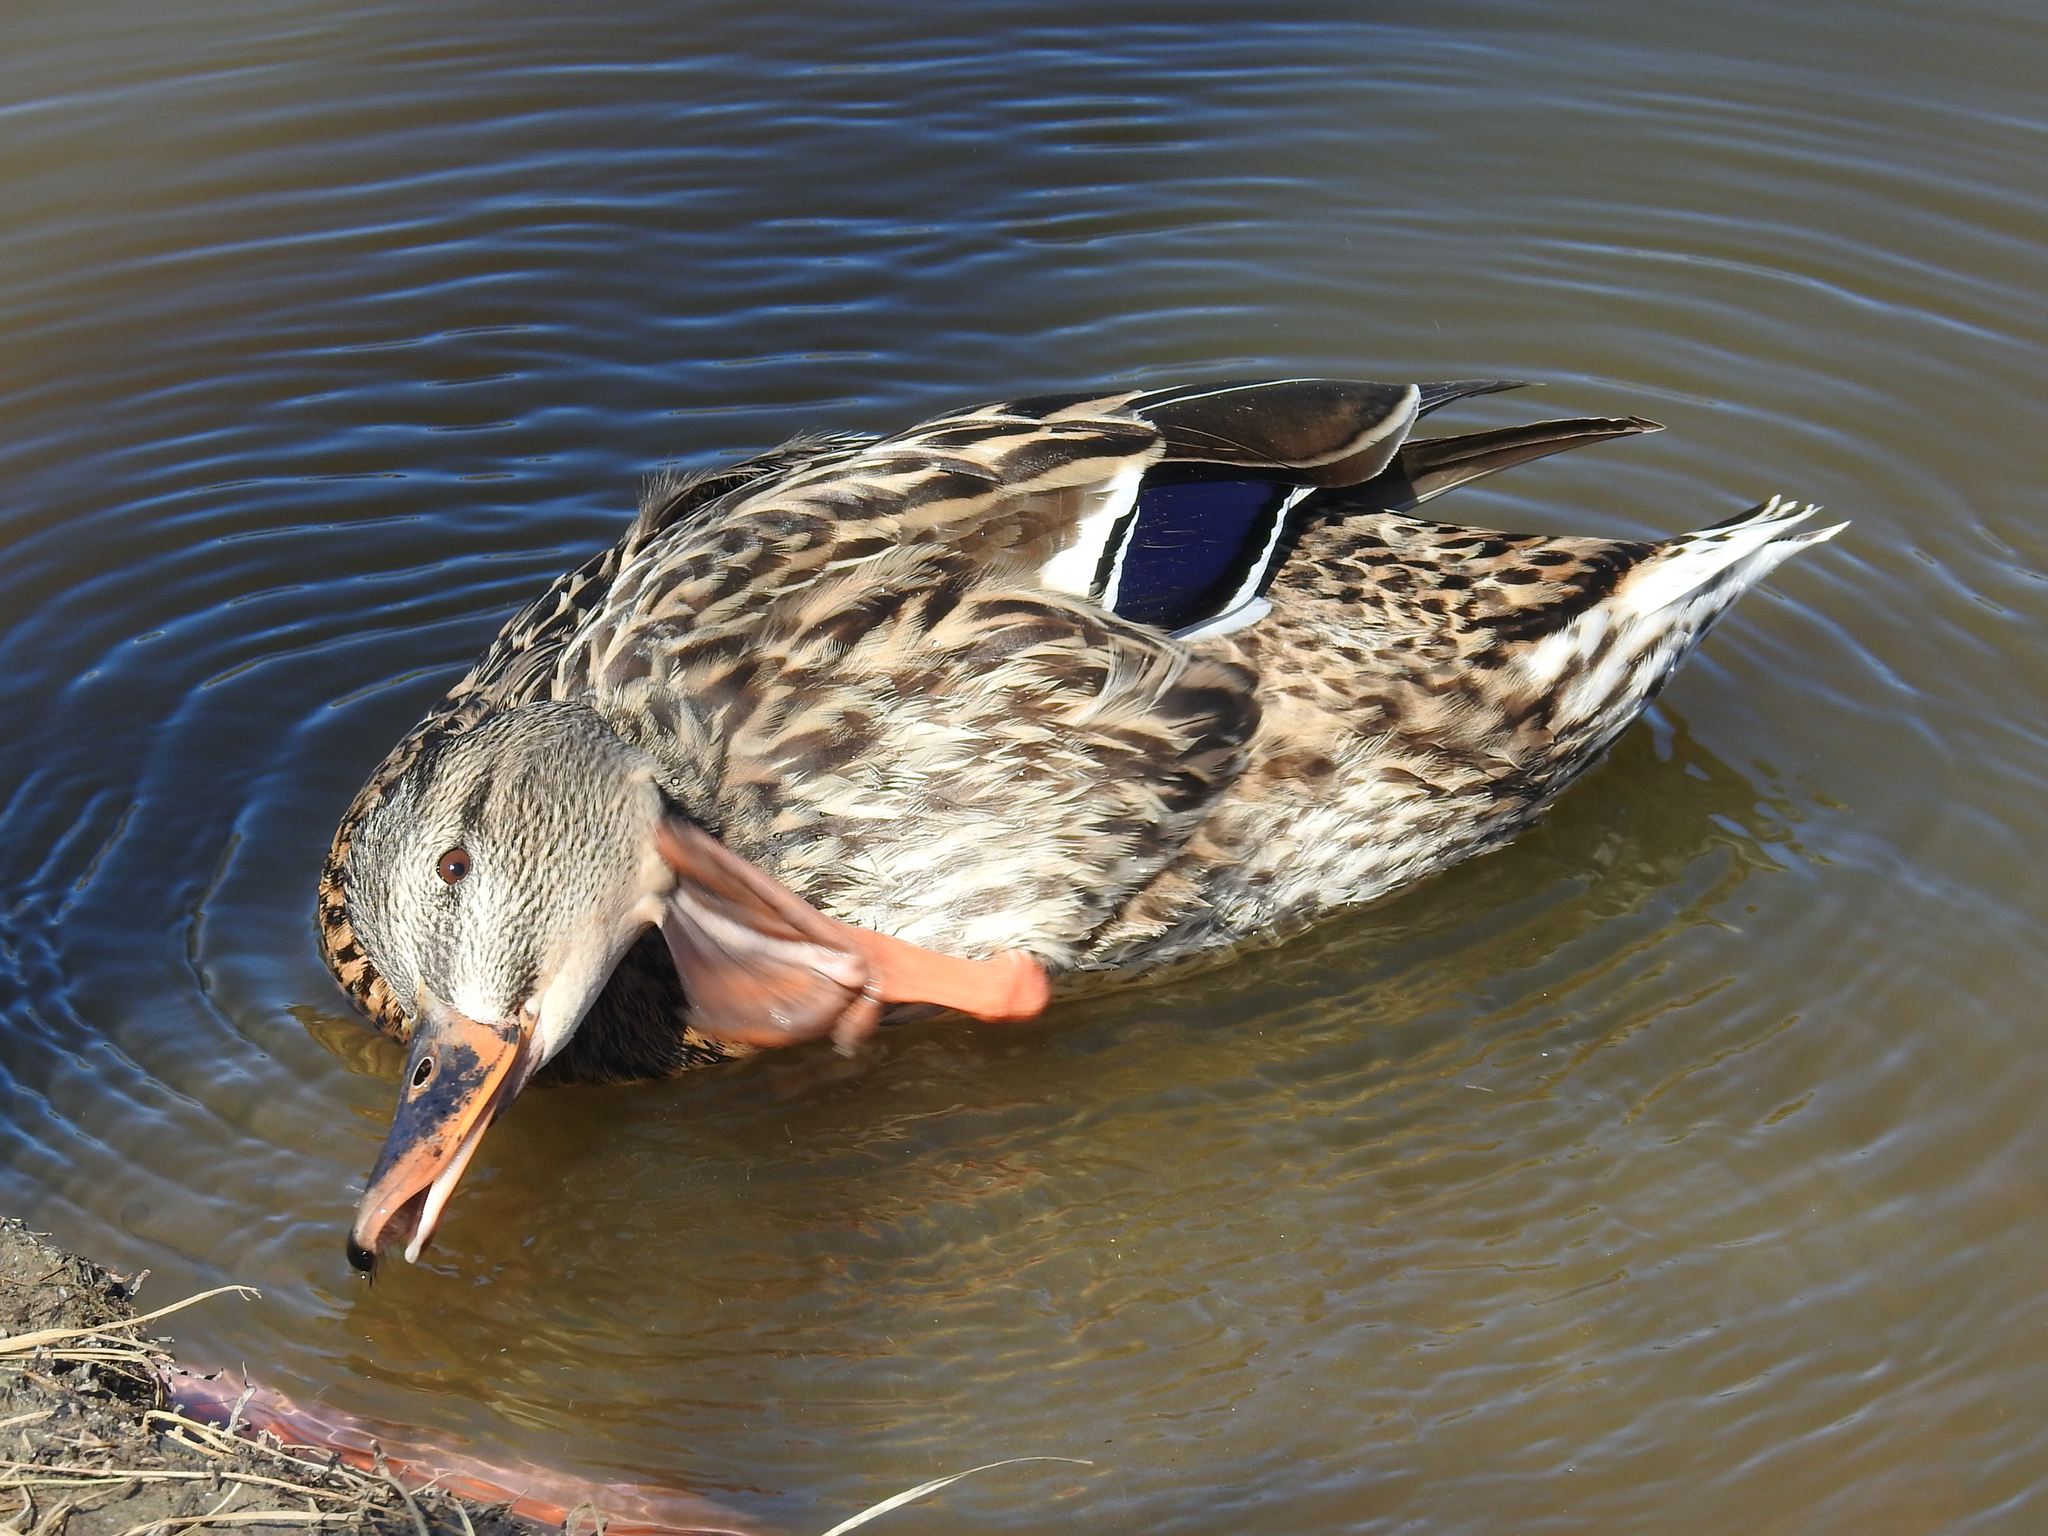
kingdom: Animalia
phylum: Chordata
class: Aves
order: Anseriformes
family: Anatidae
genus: Anas
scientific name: Anas platyrhynchos
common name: Mallard
